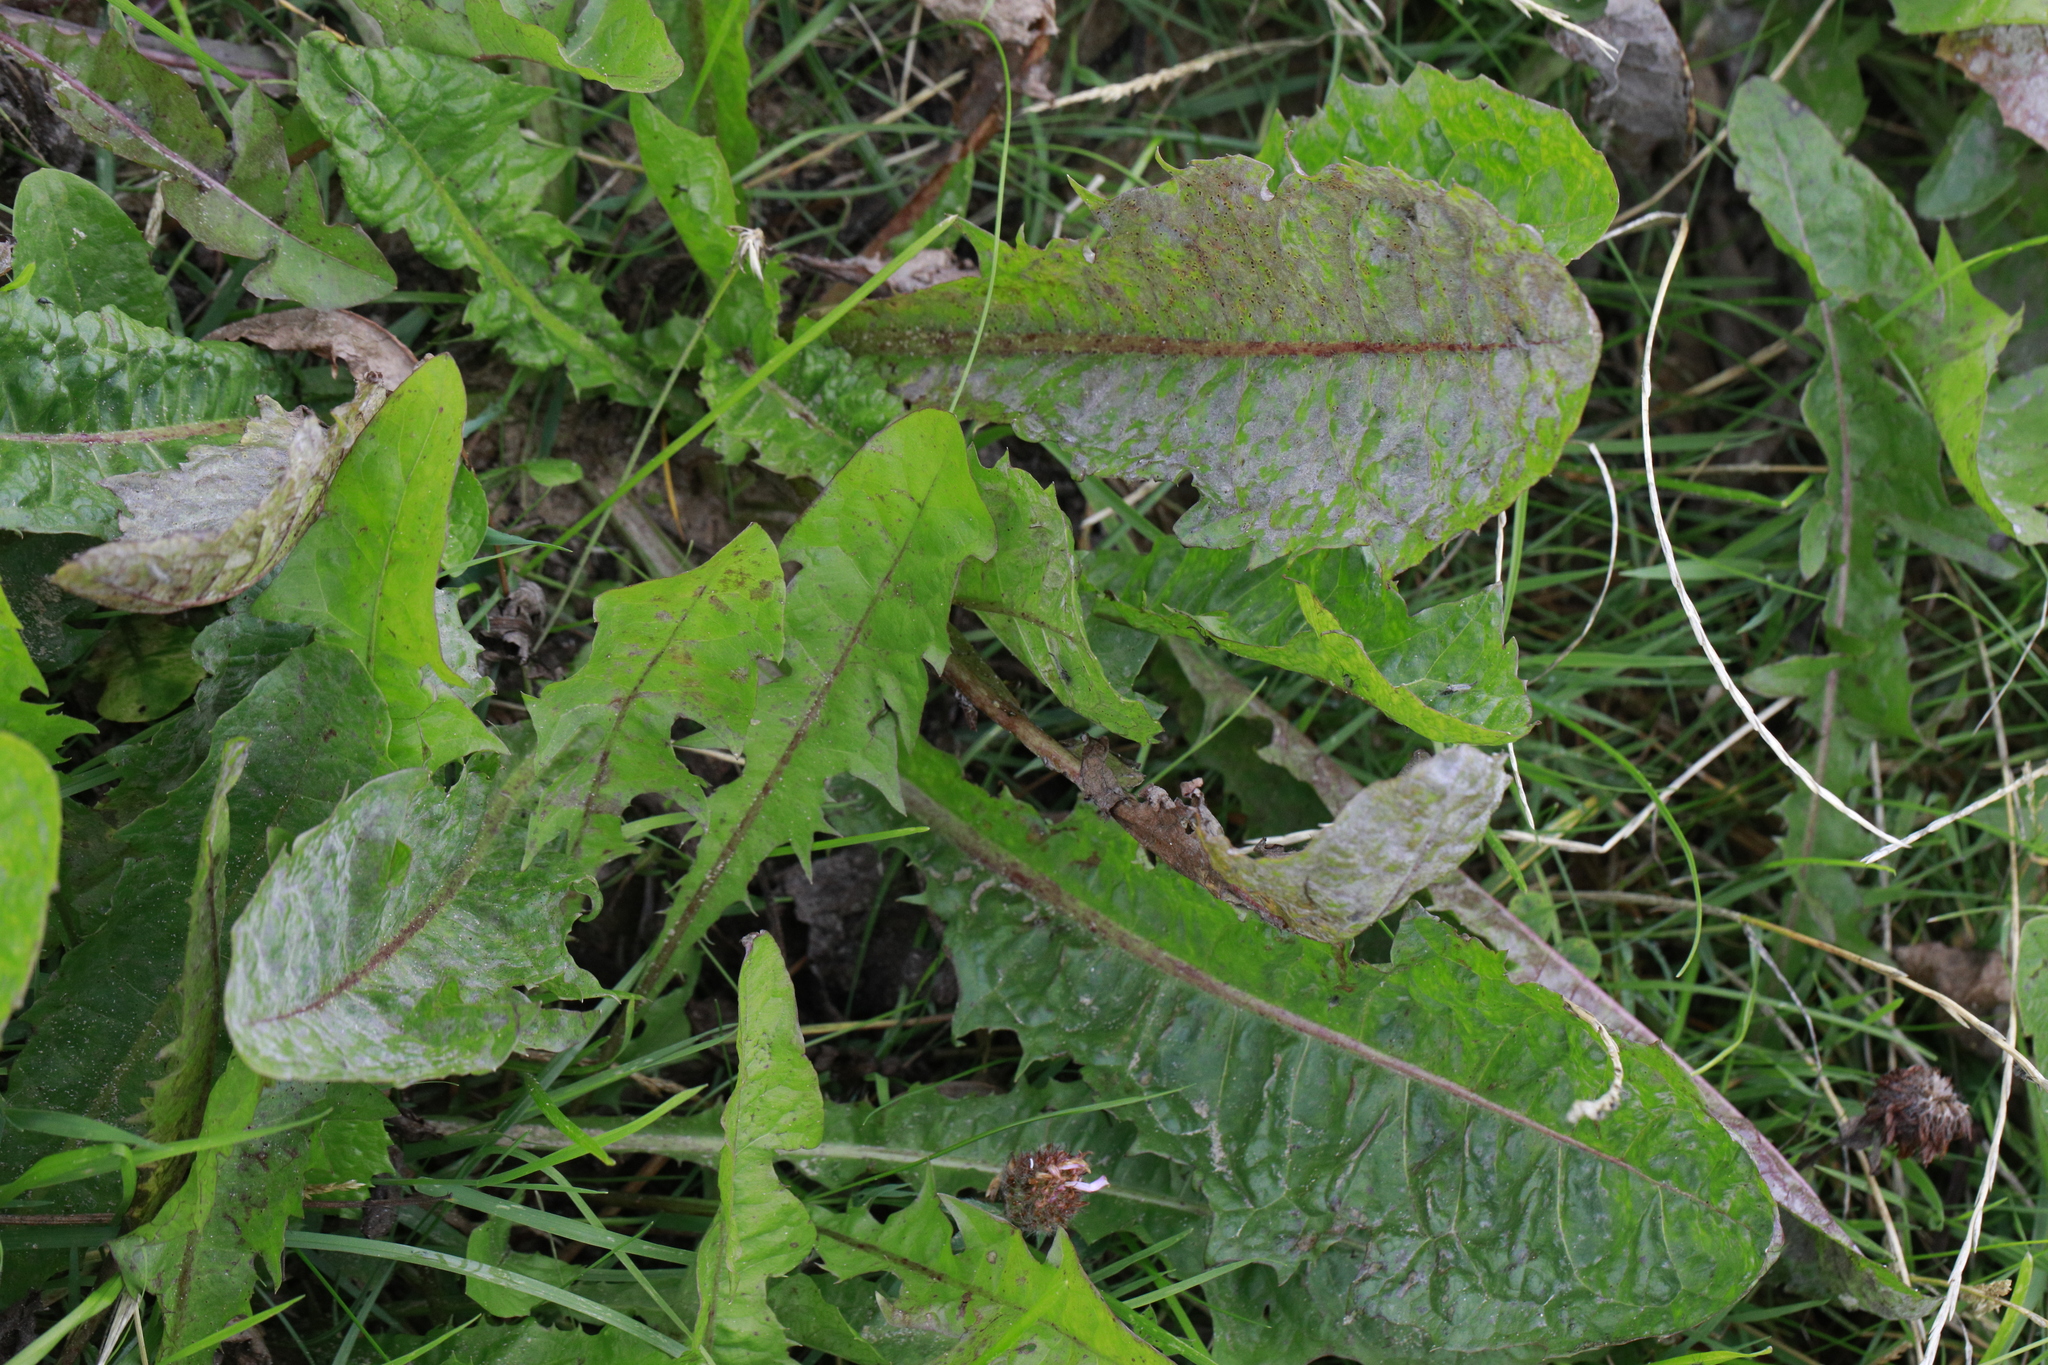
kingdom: Fungi
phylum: Ascomycota
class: Leotiomycetes
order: Helotiales
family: Erysiphaceae
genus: Podosphaera
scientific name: Podosphaera erigerontis-canadensis
